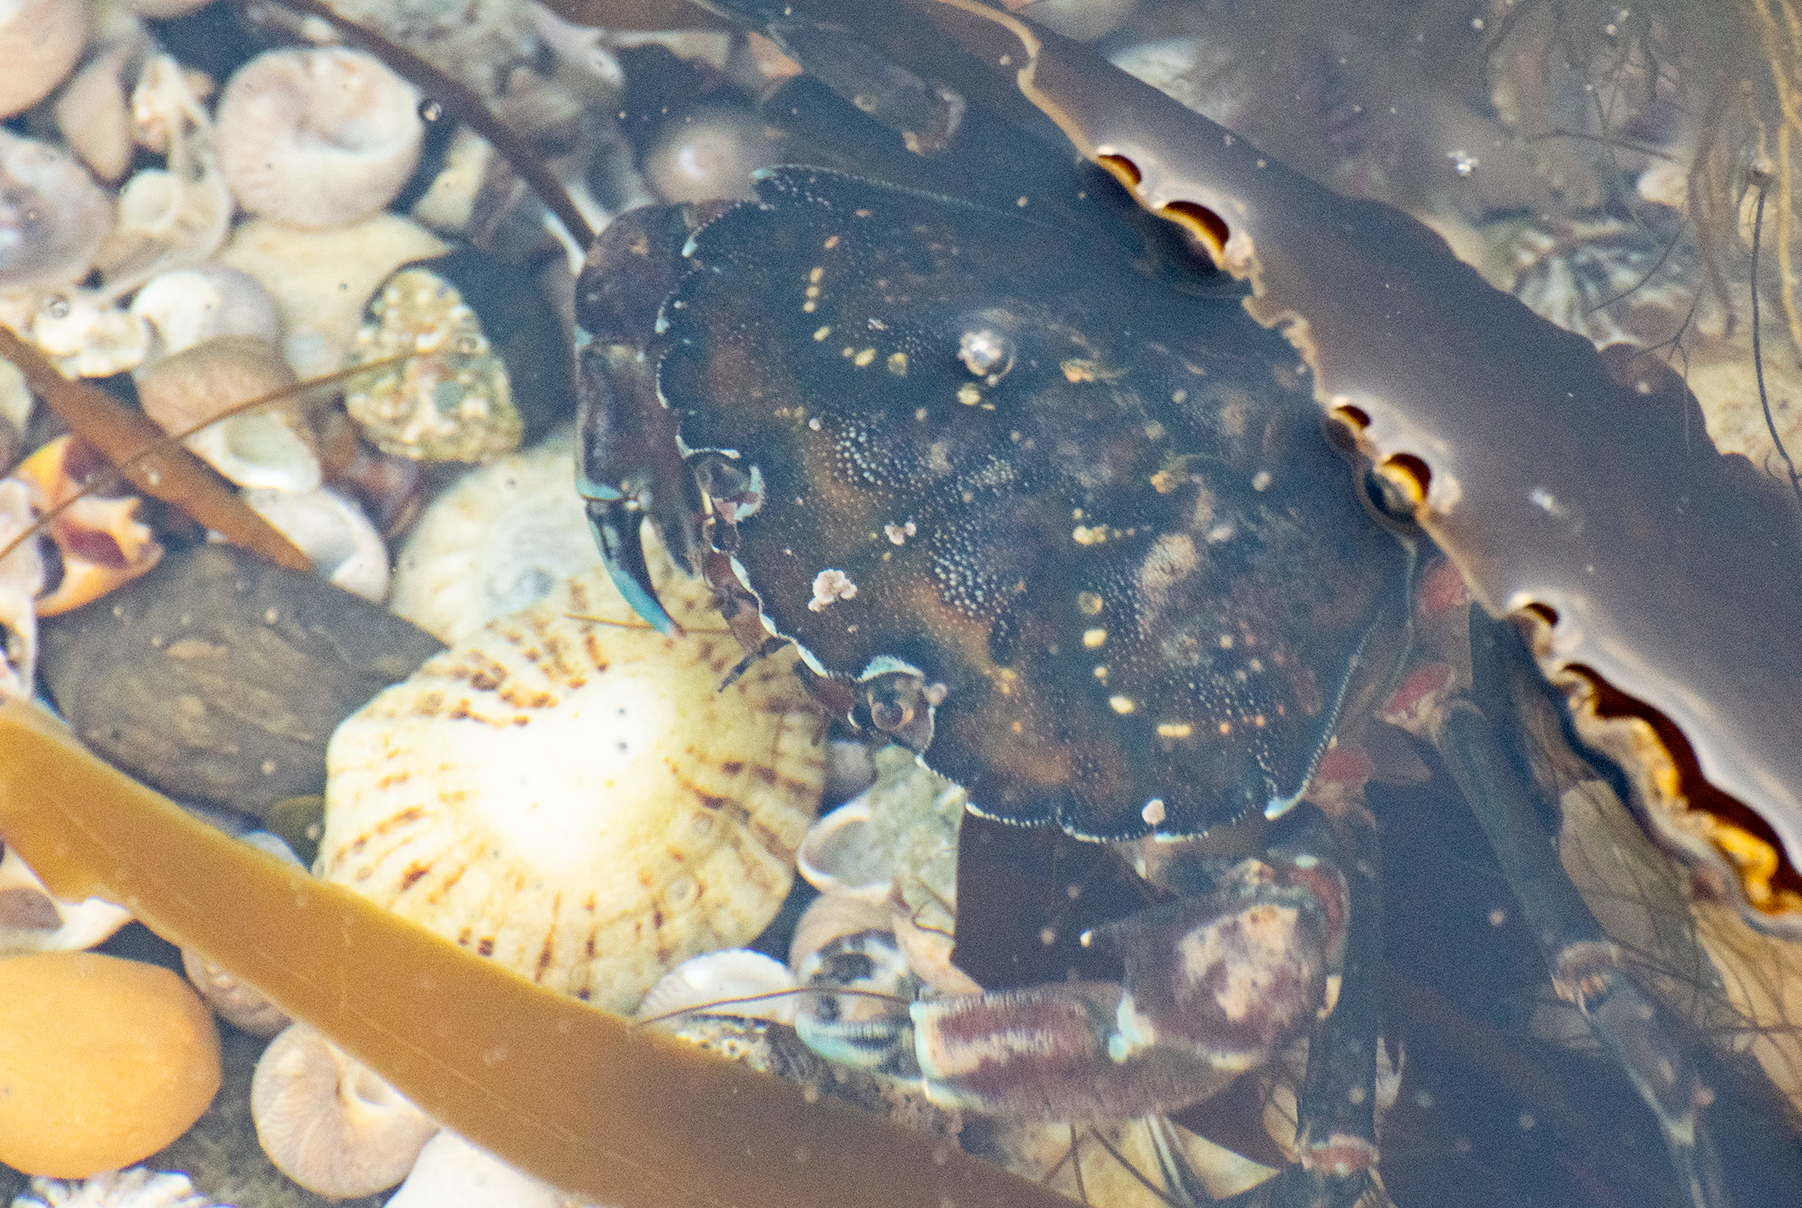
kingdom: Animalia
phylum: Arthropoda
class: Malacostraca
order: Decapoda
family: Carcinidae
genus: Carcinus
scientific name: Carcinus maenas
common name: European green crab
